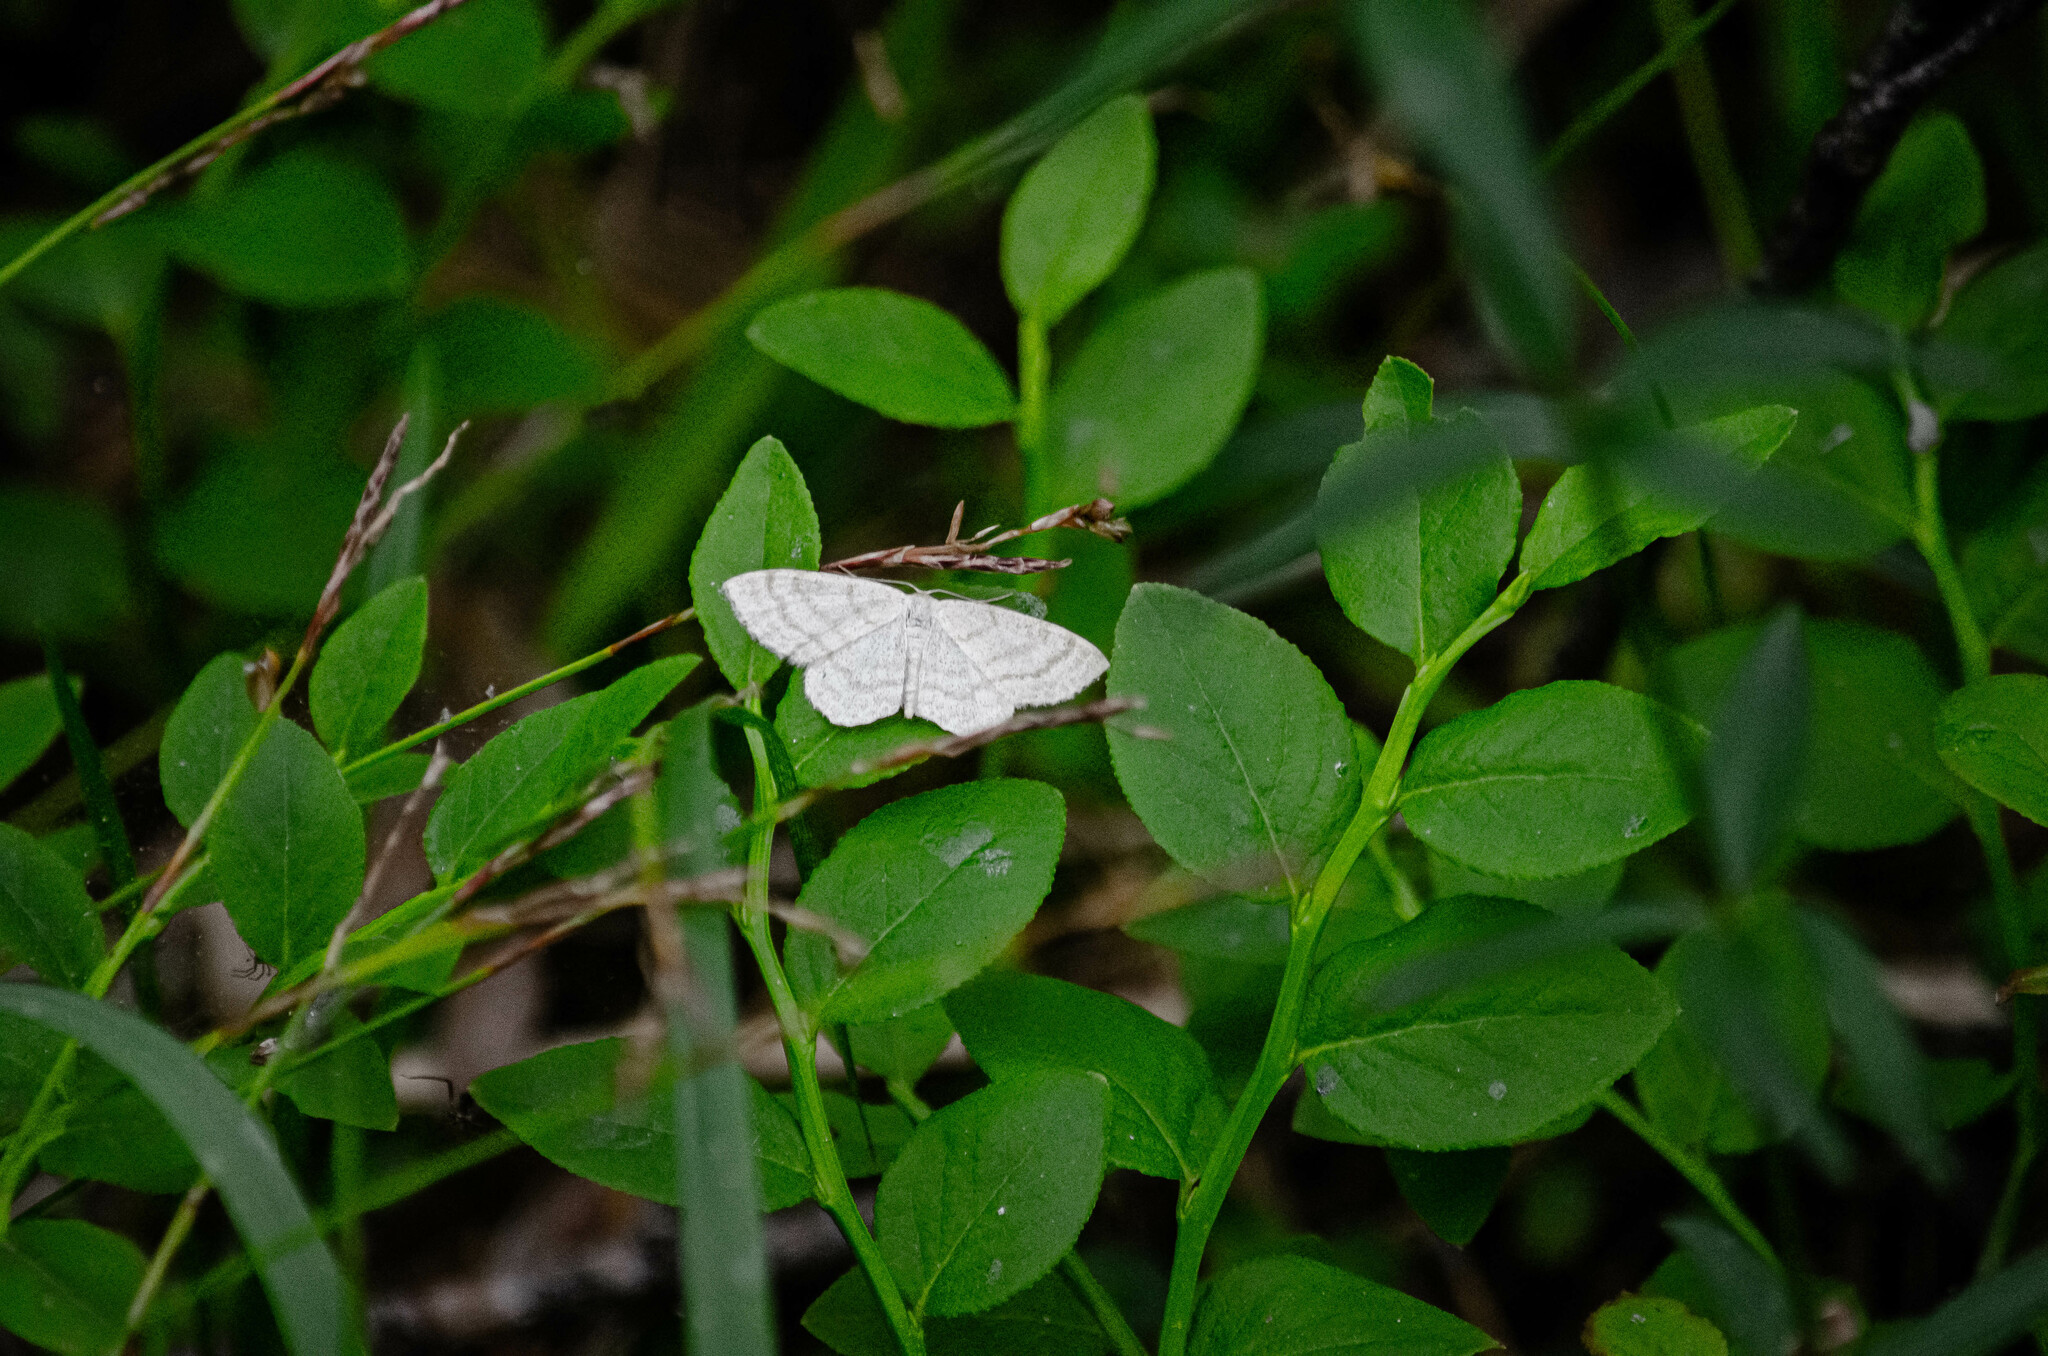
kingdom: Animalia
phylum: Arthropoda
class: Insecta
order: Lepidoptera
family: Geometridae
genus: Scopula
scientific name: Scopula ternata
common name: Smoky wave
